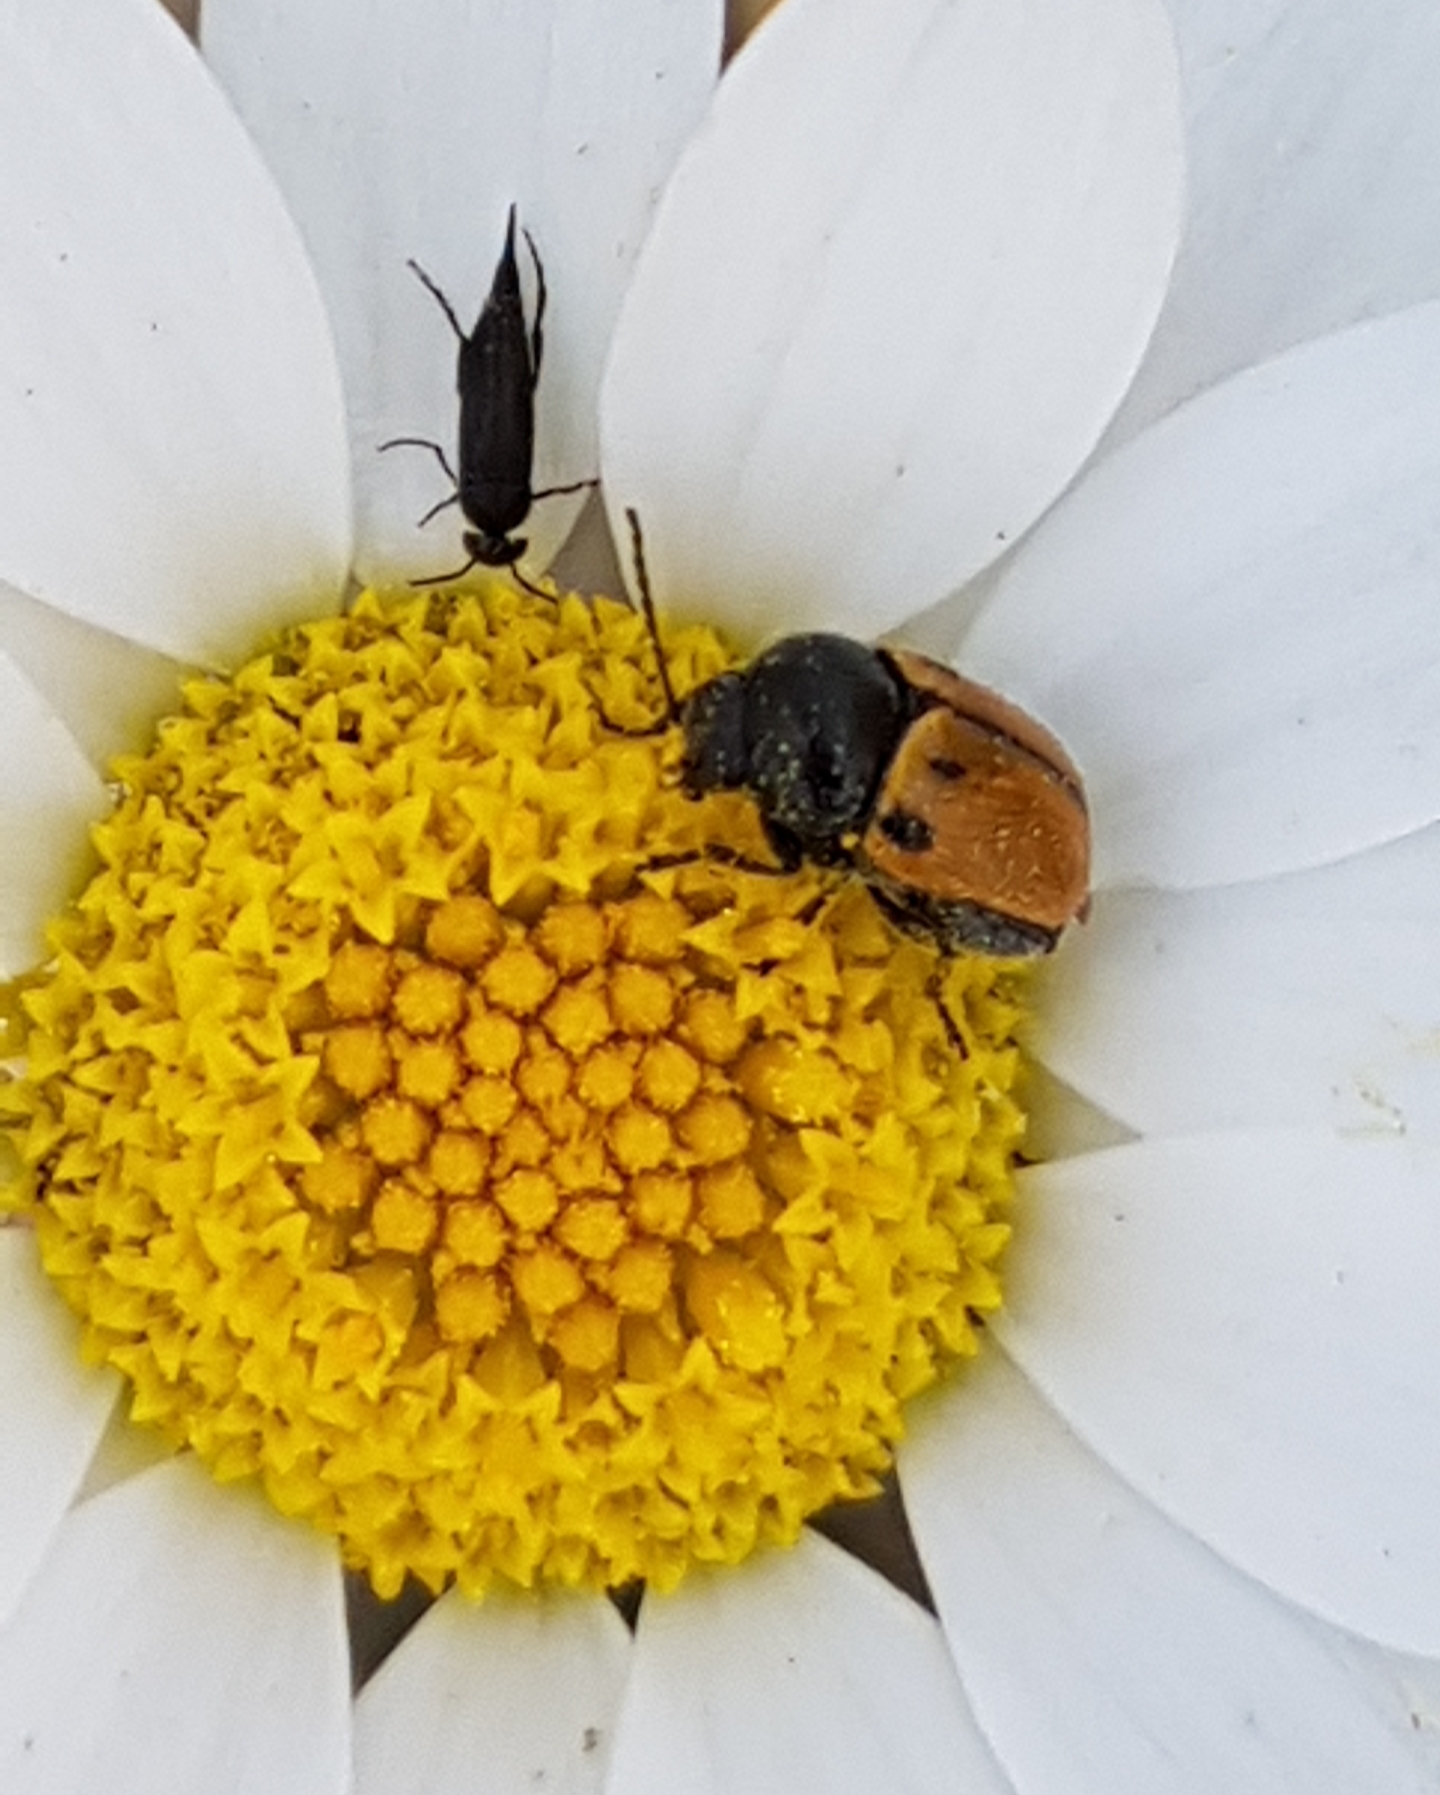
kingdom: Animalia
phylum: Arthropoda
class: Insecta
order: Coleoptera
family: Chrysomelidae
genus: Cryptocephalus
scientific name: Cryptocephalus rugicollis
